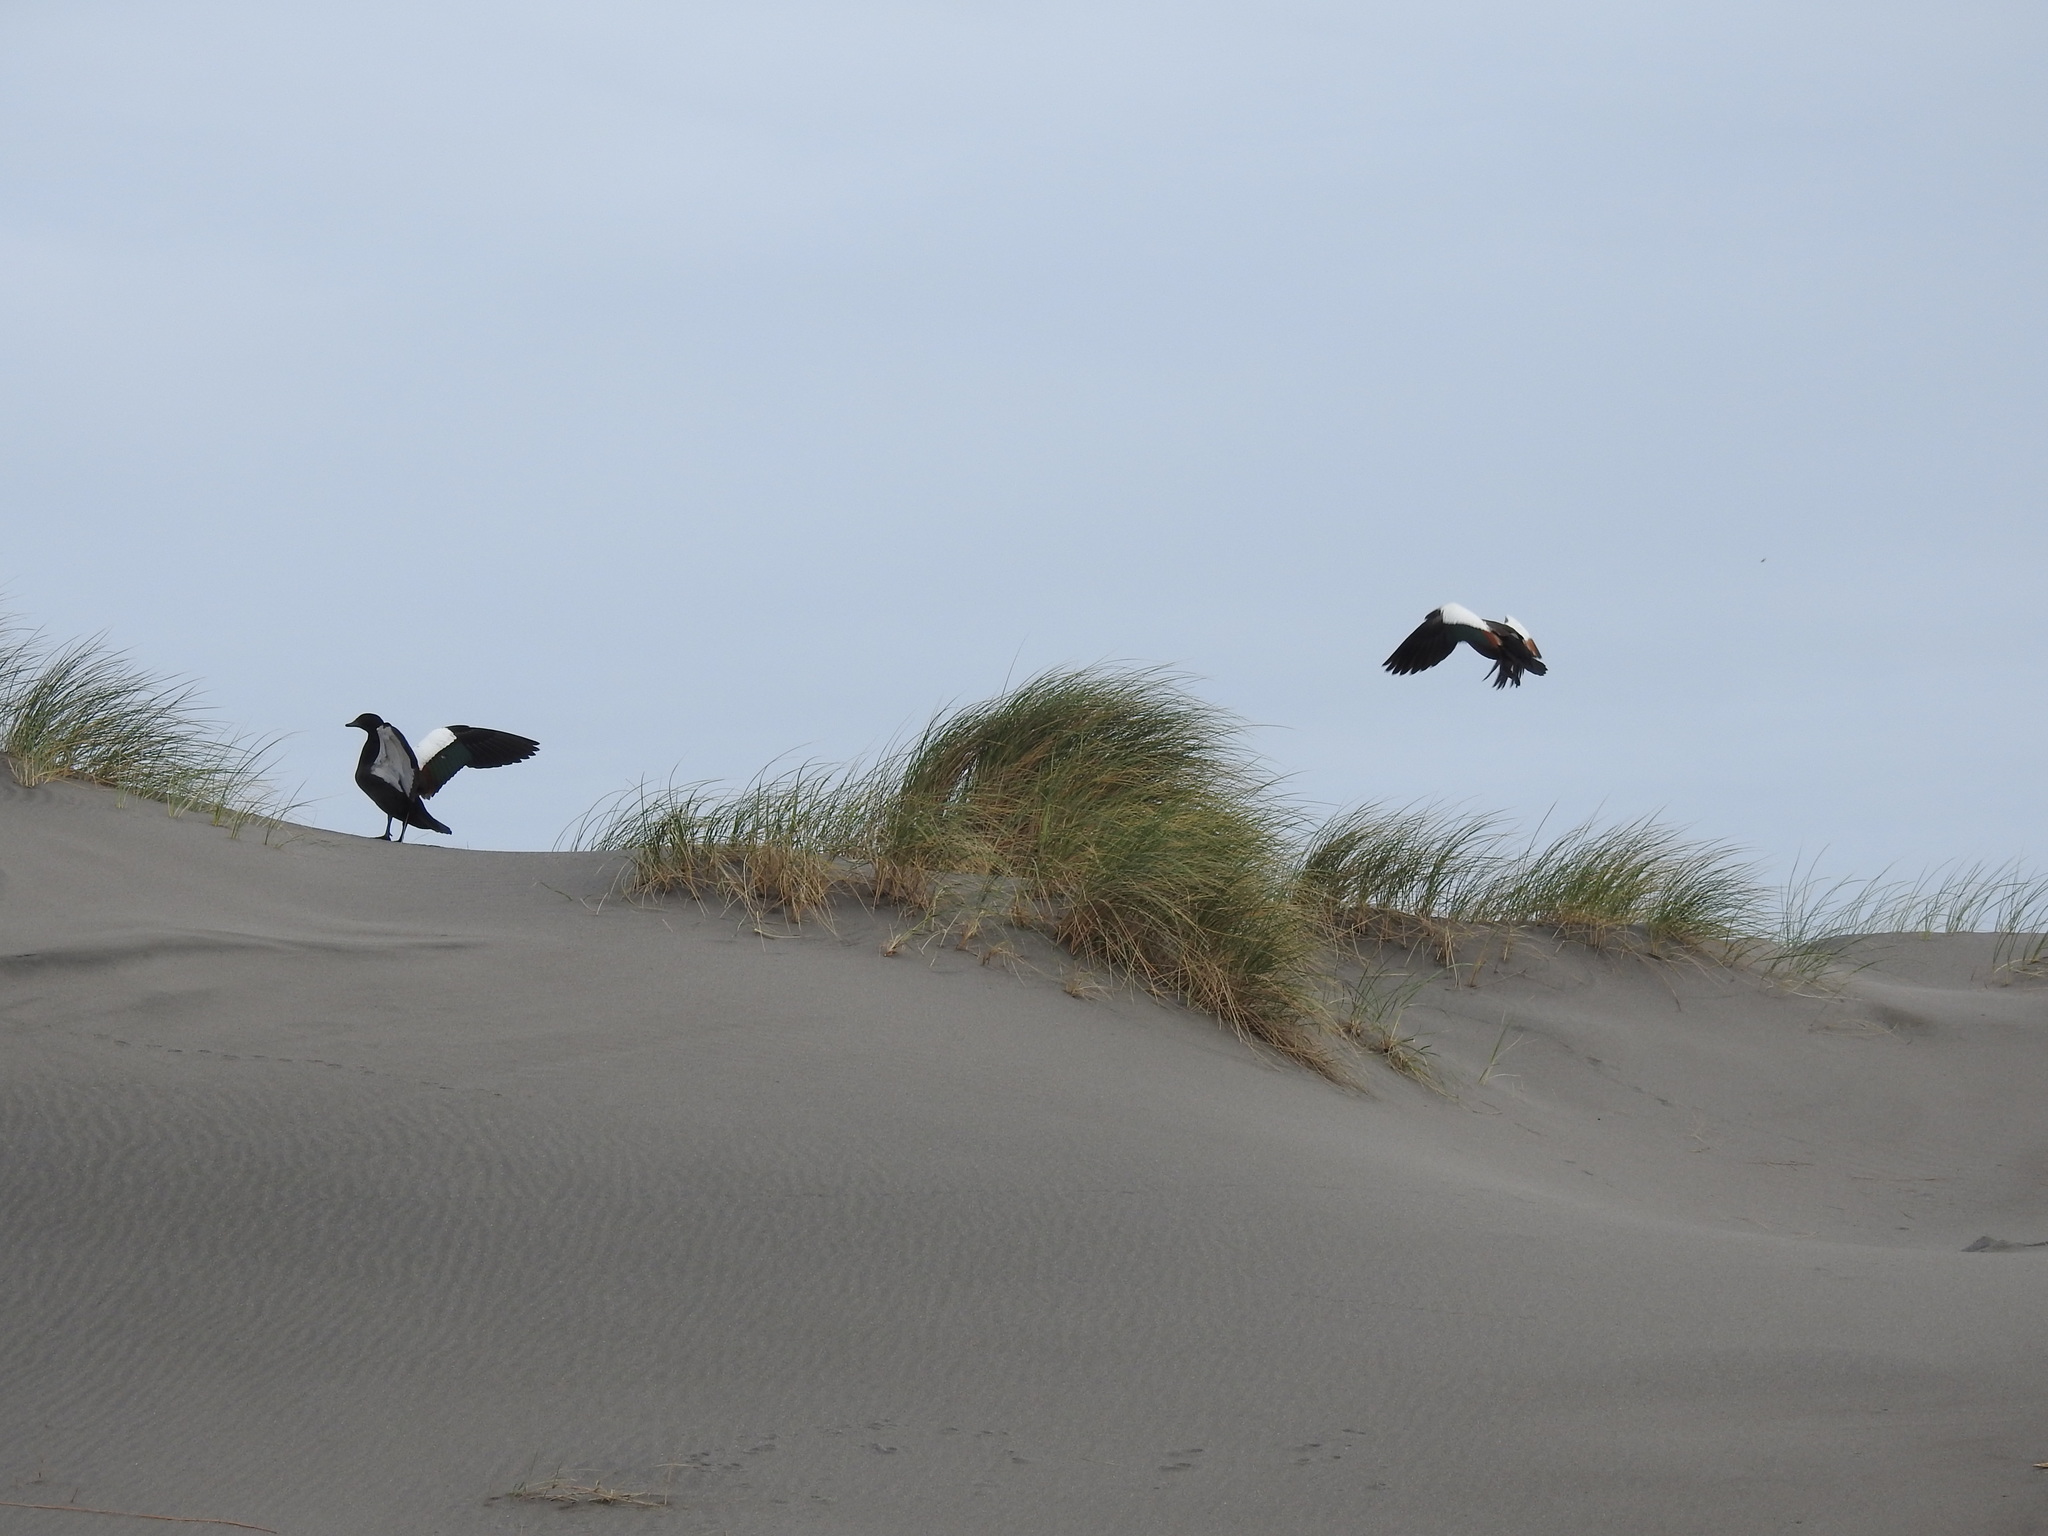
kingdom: Animalia
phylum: Chordata
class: Aves
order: Anseriformes
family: Anatidae
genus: Tadorna
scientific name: Tadorna variegata
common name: Paradise shelduck
